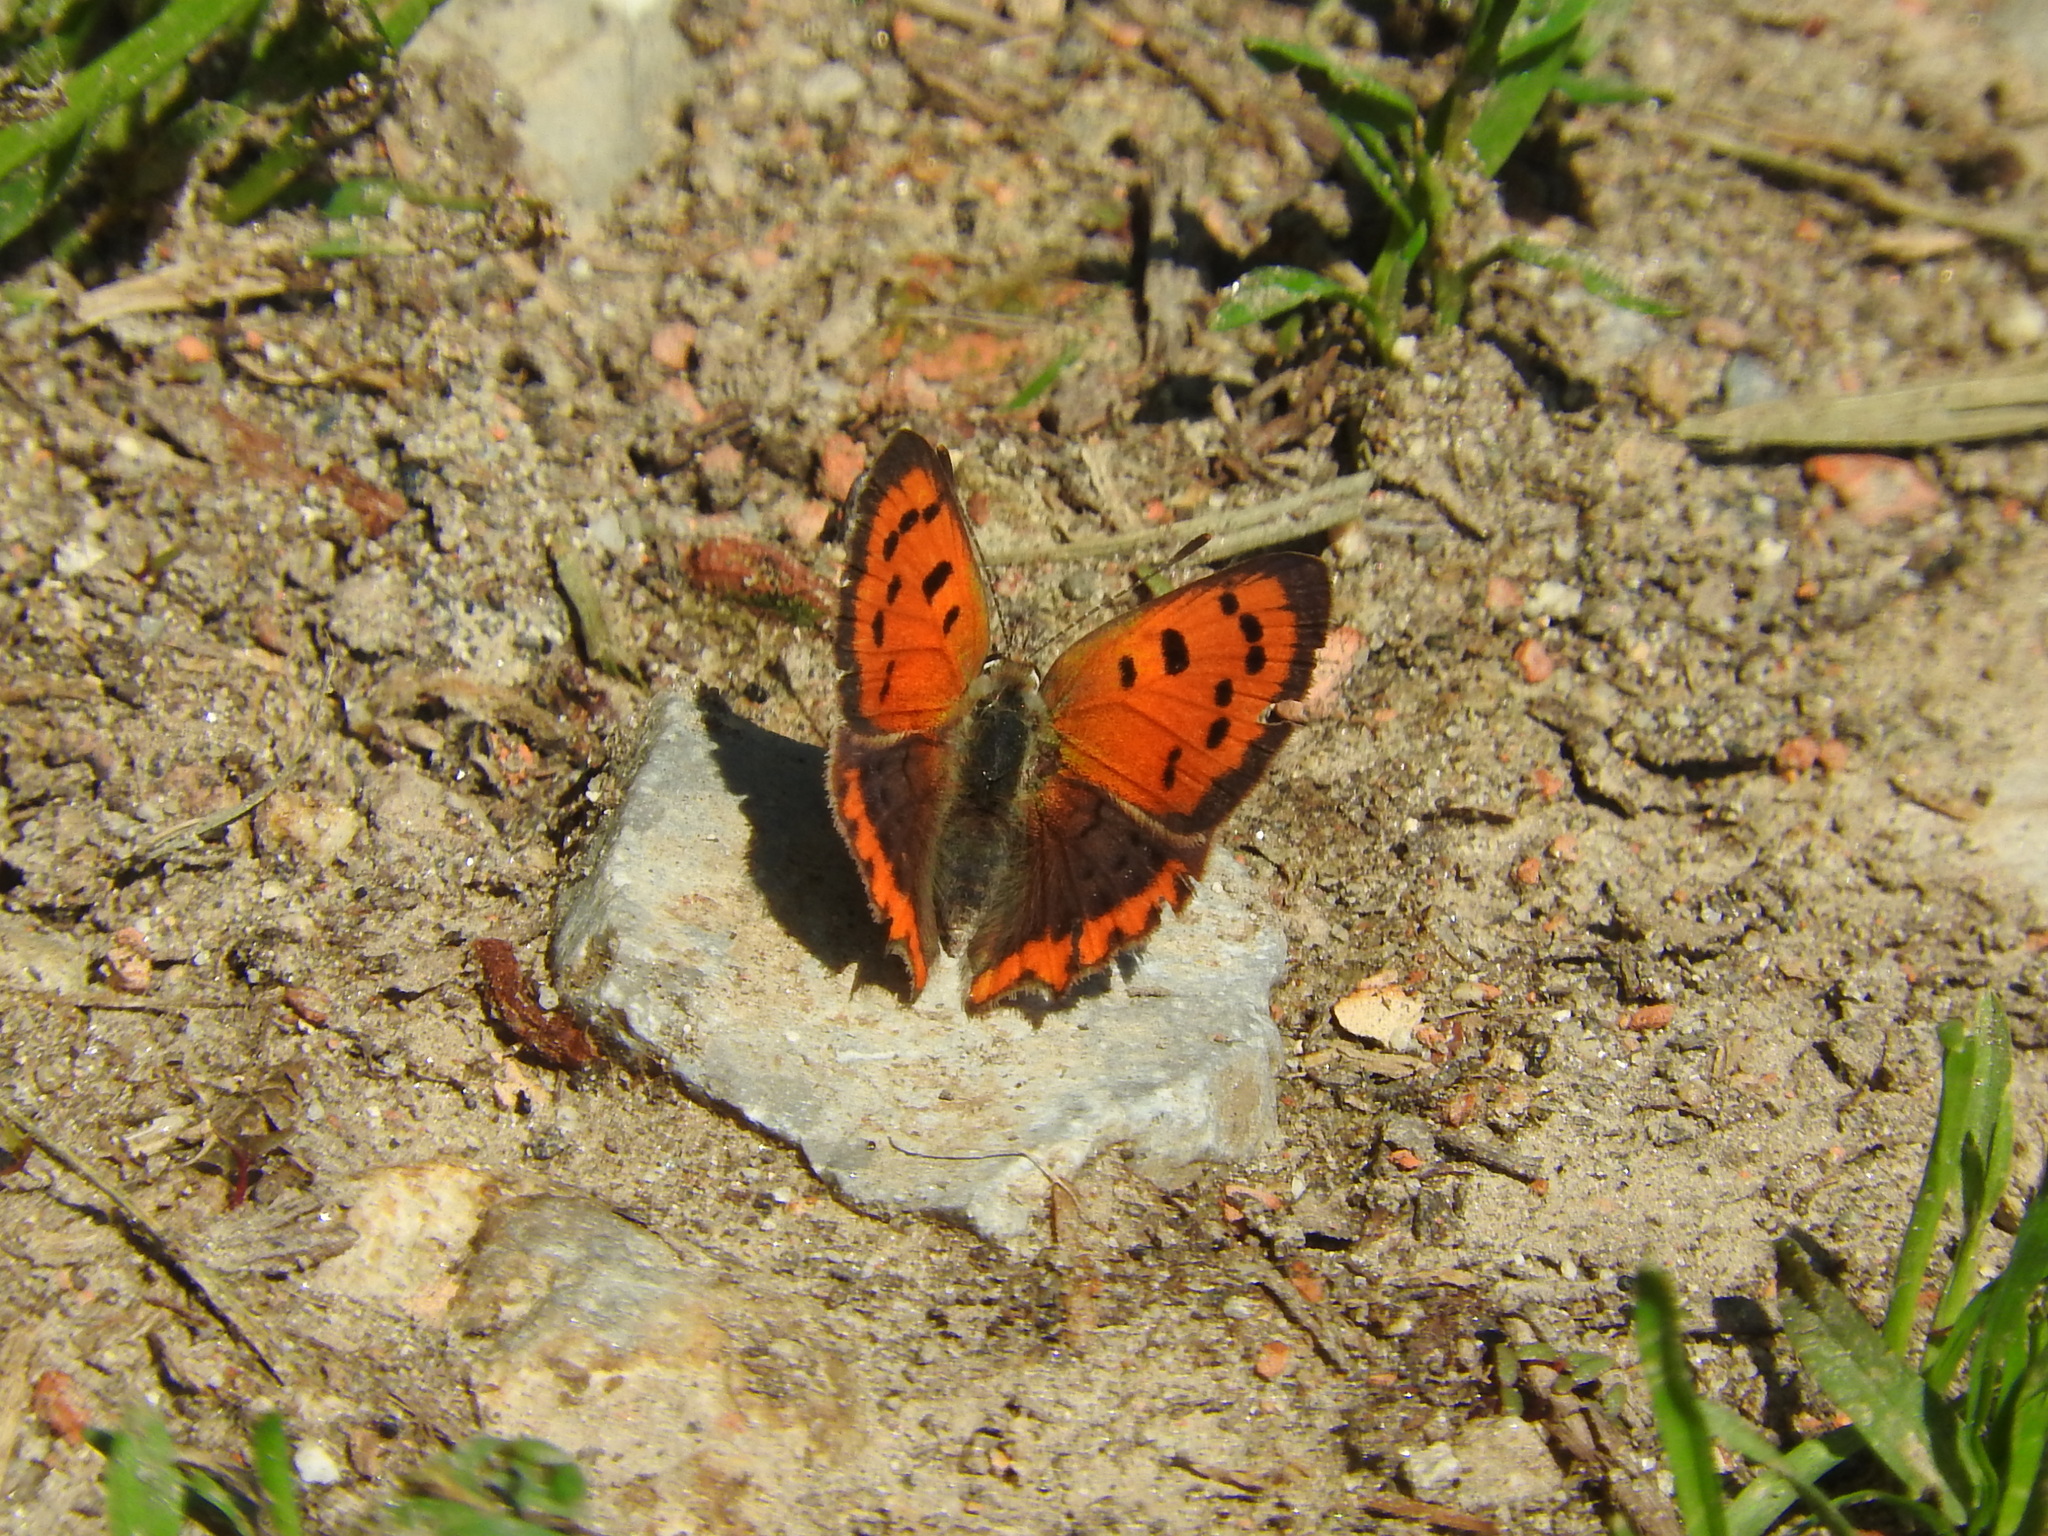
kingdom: Animalia
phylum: Arthropoda
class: Insecta
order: Lepidoptera
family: Lycaenidae
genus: Lycaena
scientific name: Lycaena phlaeas
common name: Small copper
